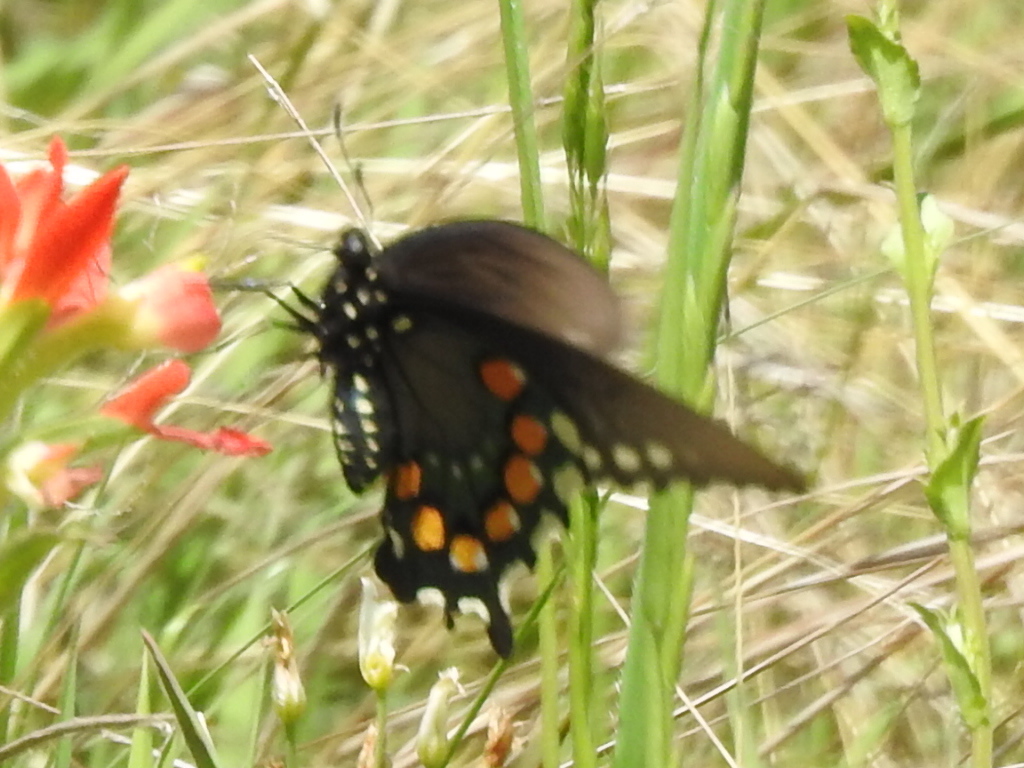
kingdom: Animalia
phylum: Arthropoda
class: Insecta
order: Lepidoptera
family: Papilionidae
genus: Battus
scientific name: Battus philenor
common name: Pipevine swallowtail
